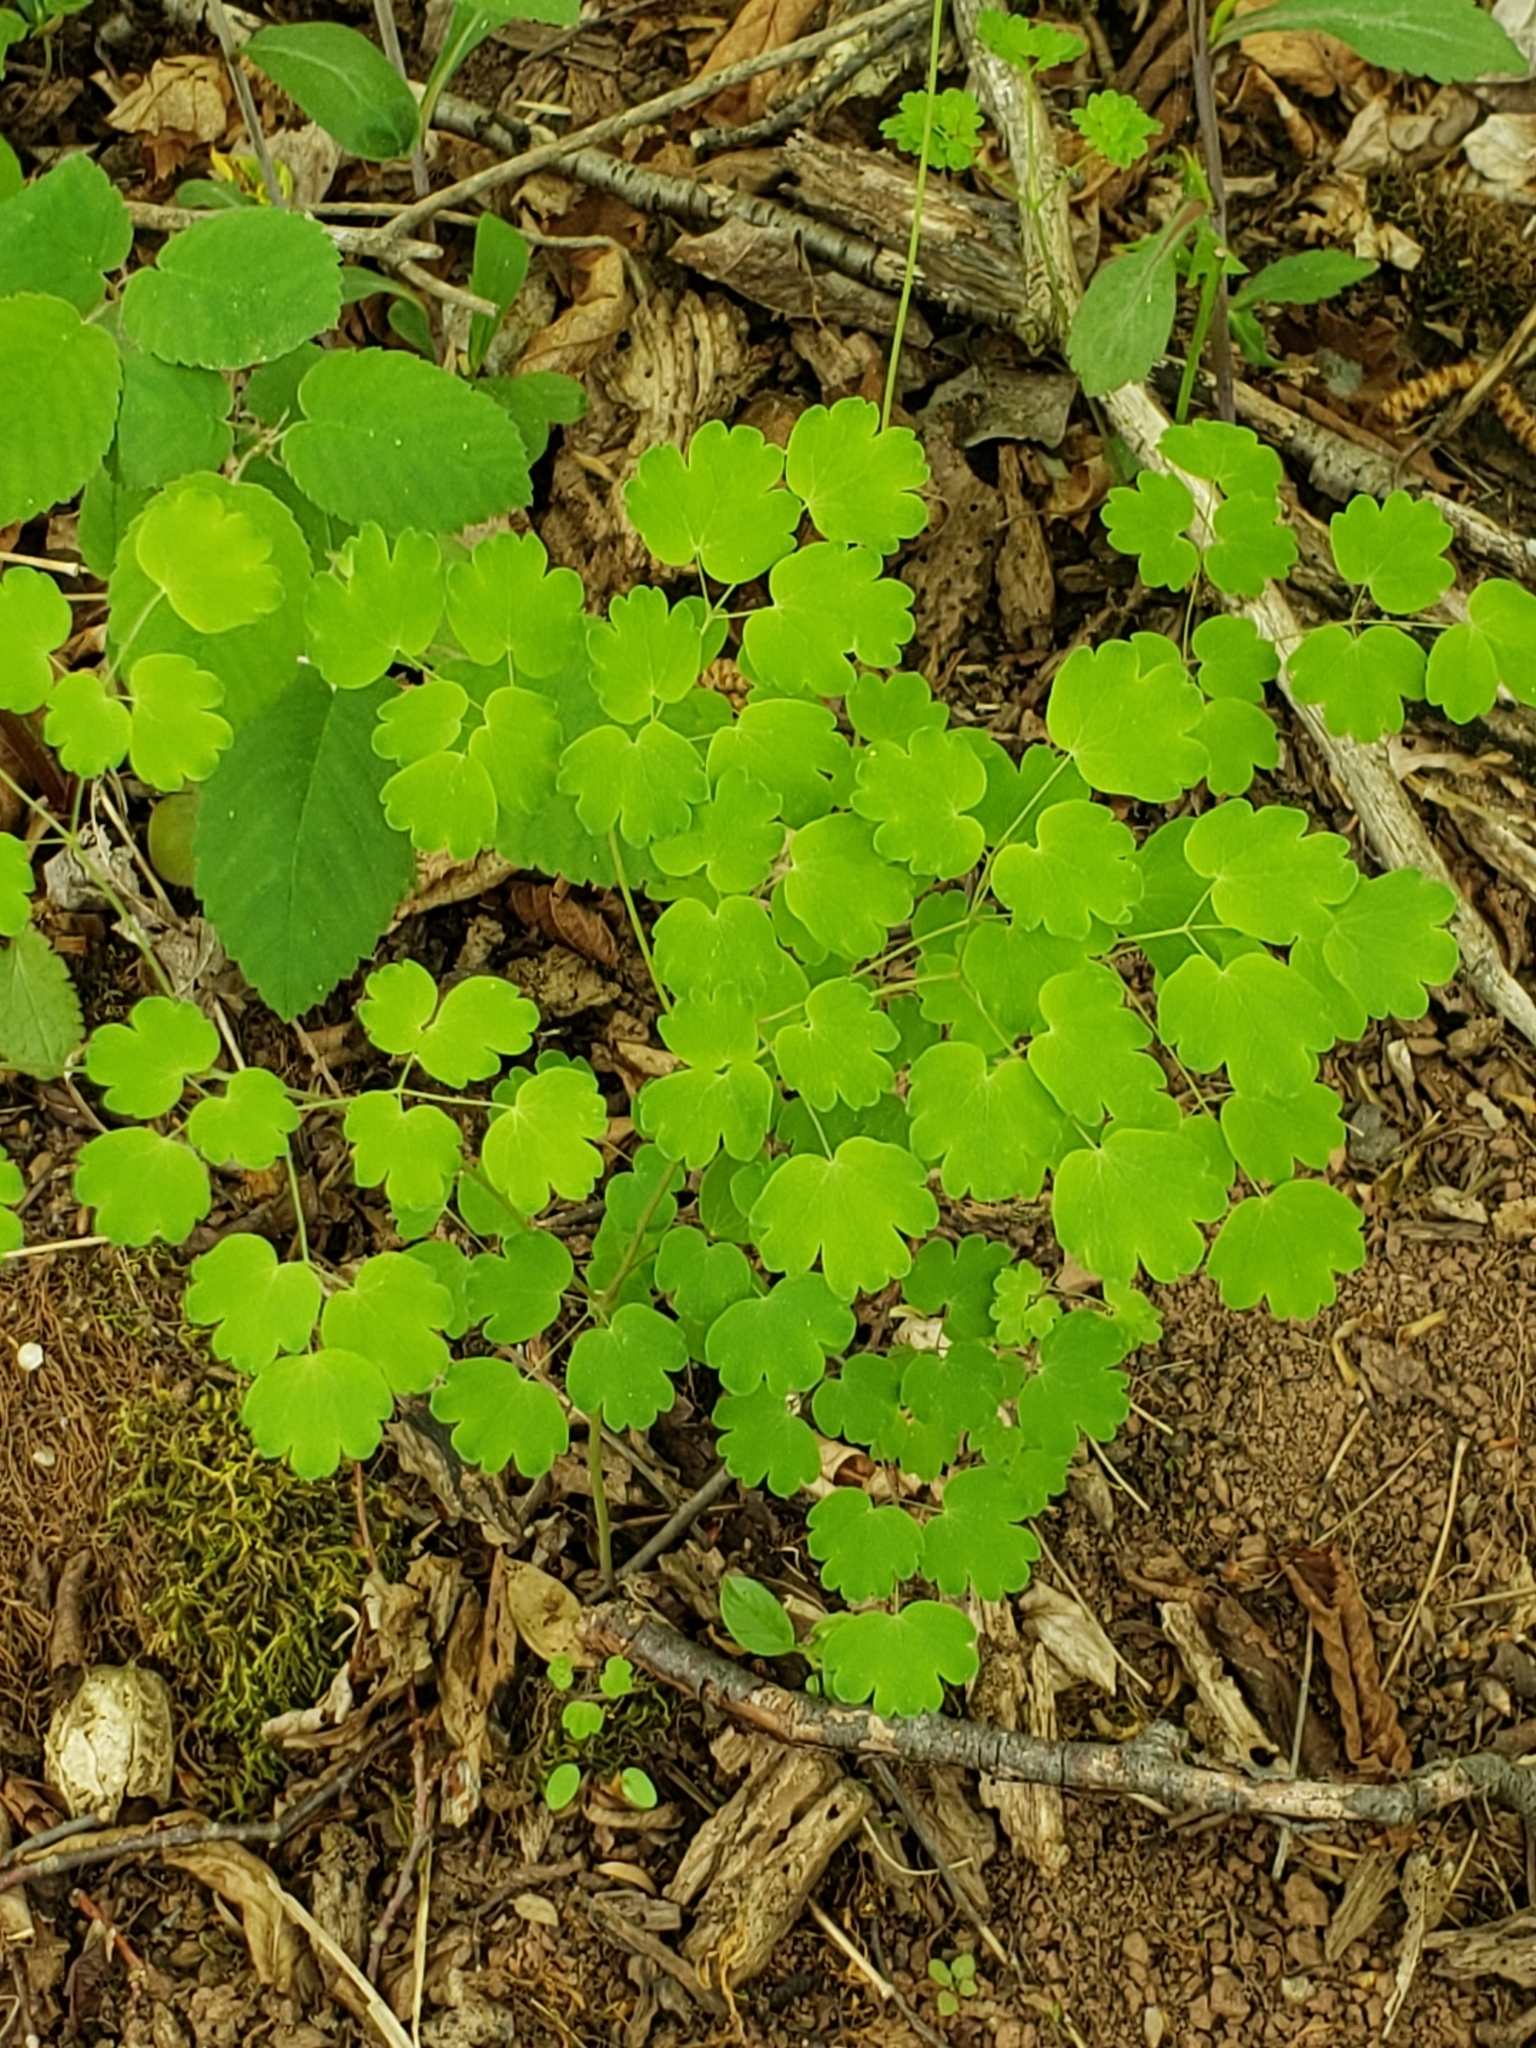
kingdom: Plantae
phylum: Tracheophyta
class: Magnoliopsida
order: Ranunculales
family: Ranunculaceae
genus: Thalictrum
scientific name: Thalictrum dioicum
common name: Early meadow-rue
